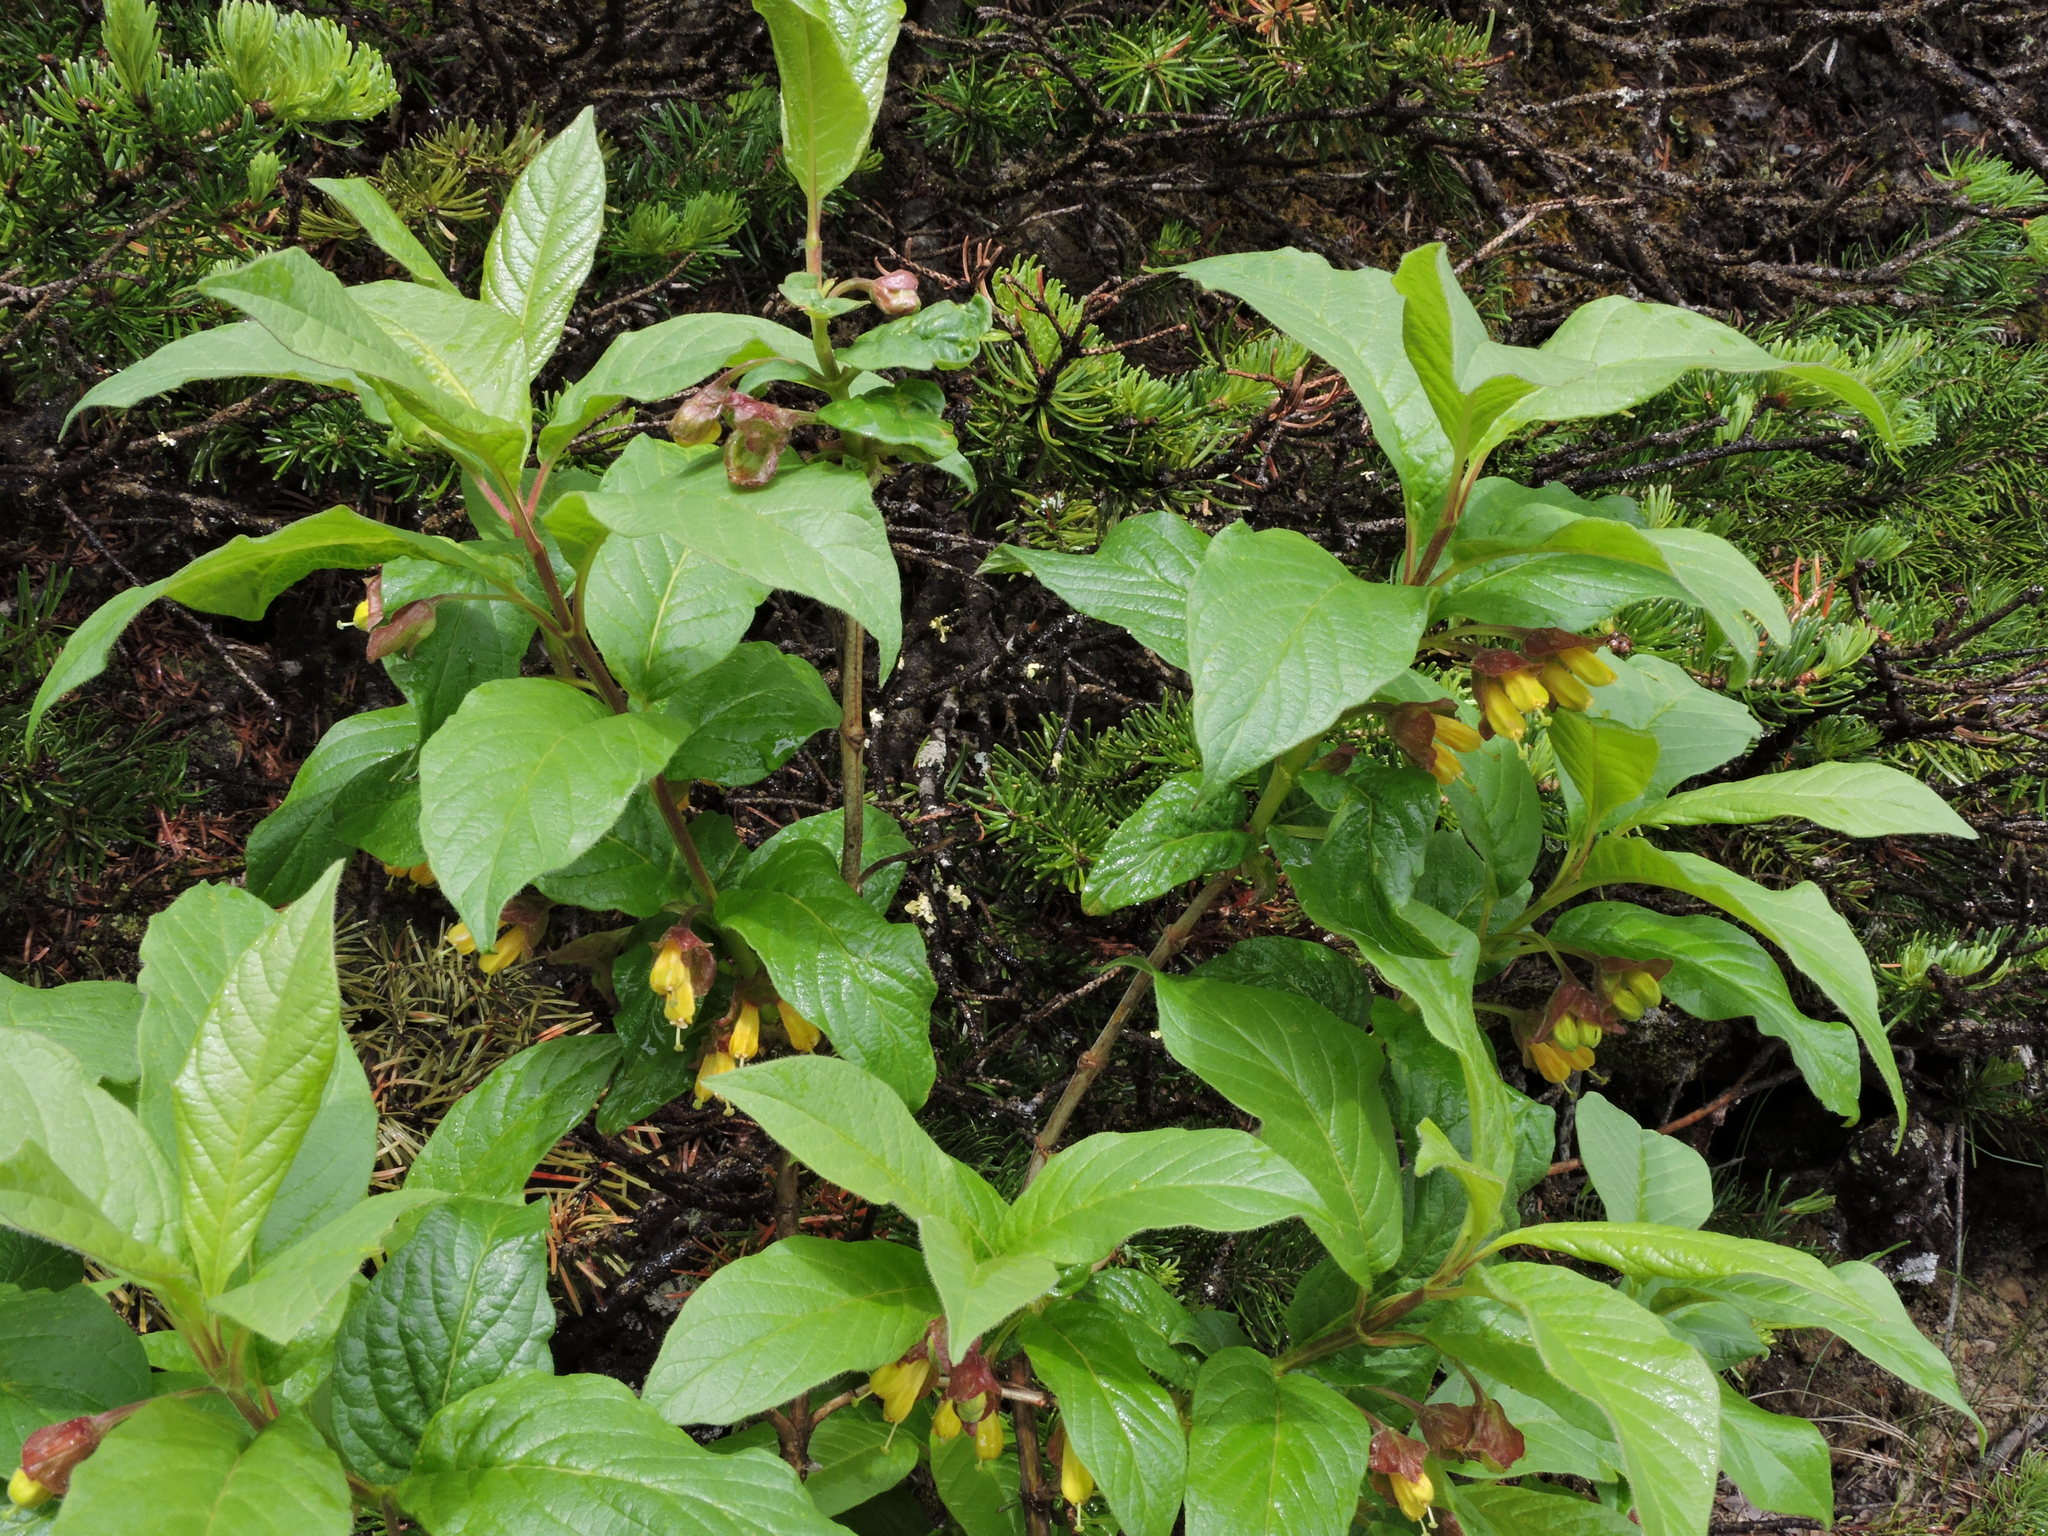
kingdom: Plantae
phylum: Tracheophyta
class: Magnoliopsida
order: Dipsacales
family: Caprifoliaceae
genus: Lonicera
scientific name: Lonicera involucrata
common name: Californian honeysuckle
